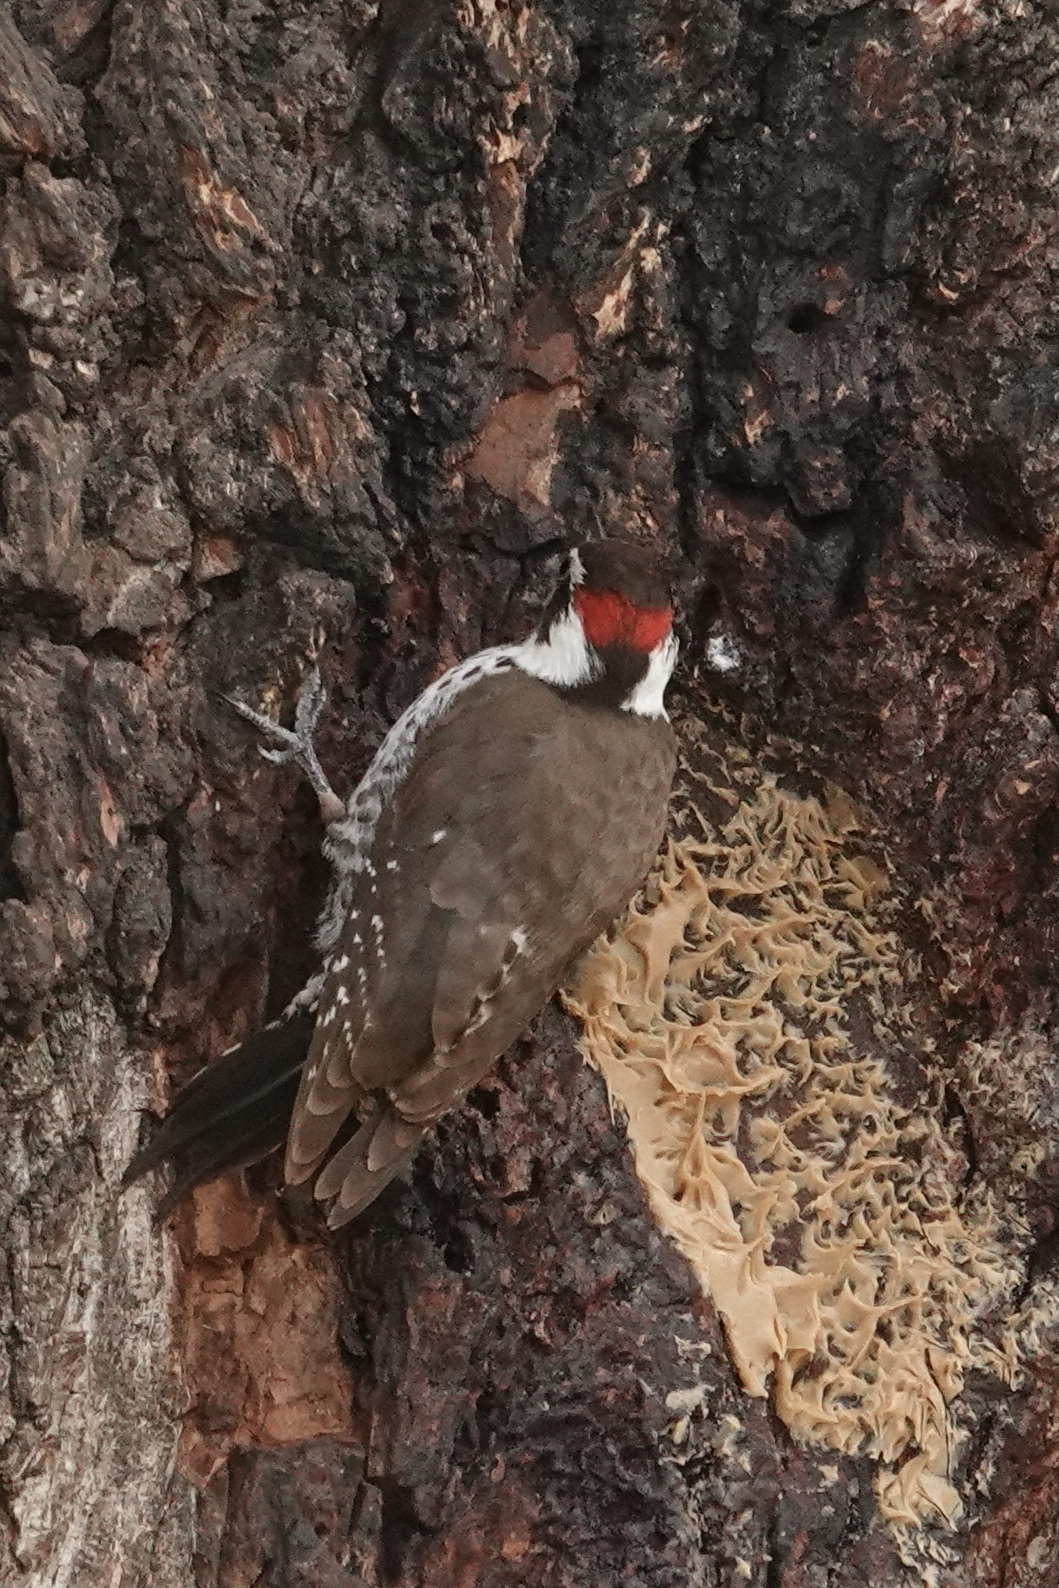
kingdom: Animalia
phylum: Chordata
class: Aves
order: Piciformes
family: Picidae
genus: Leuconotopicus
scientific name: Leuconotopicus arizonae
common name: Arizona woodpecker
